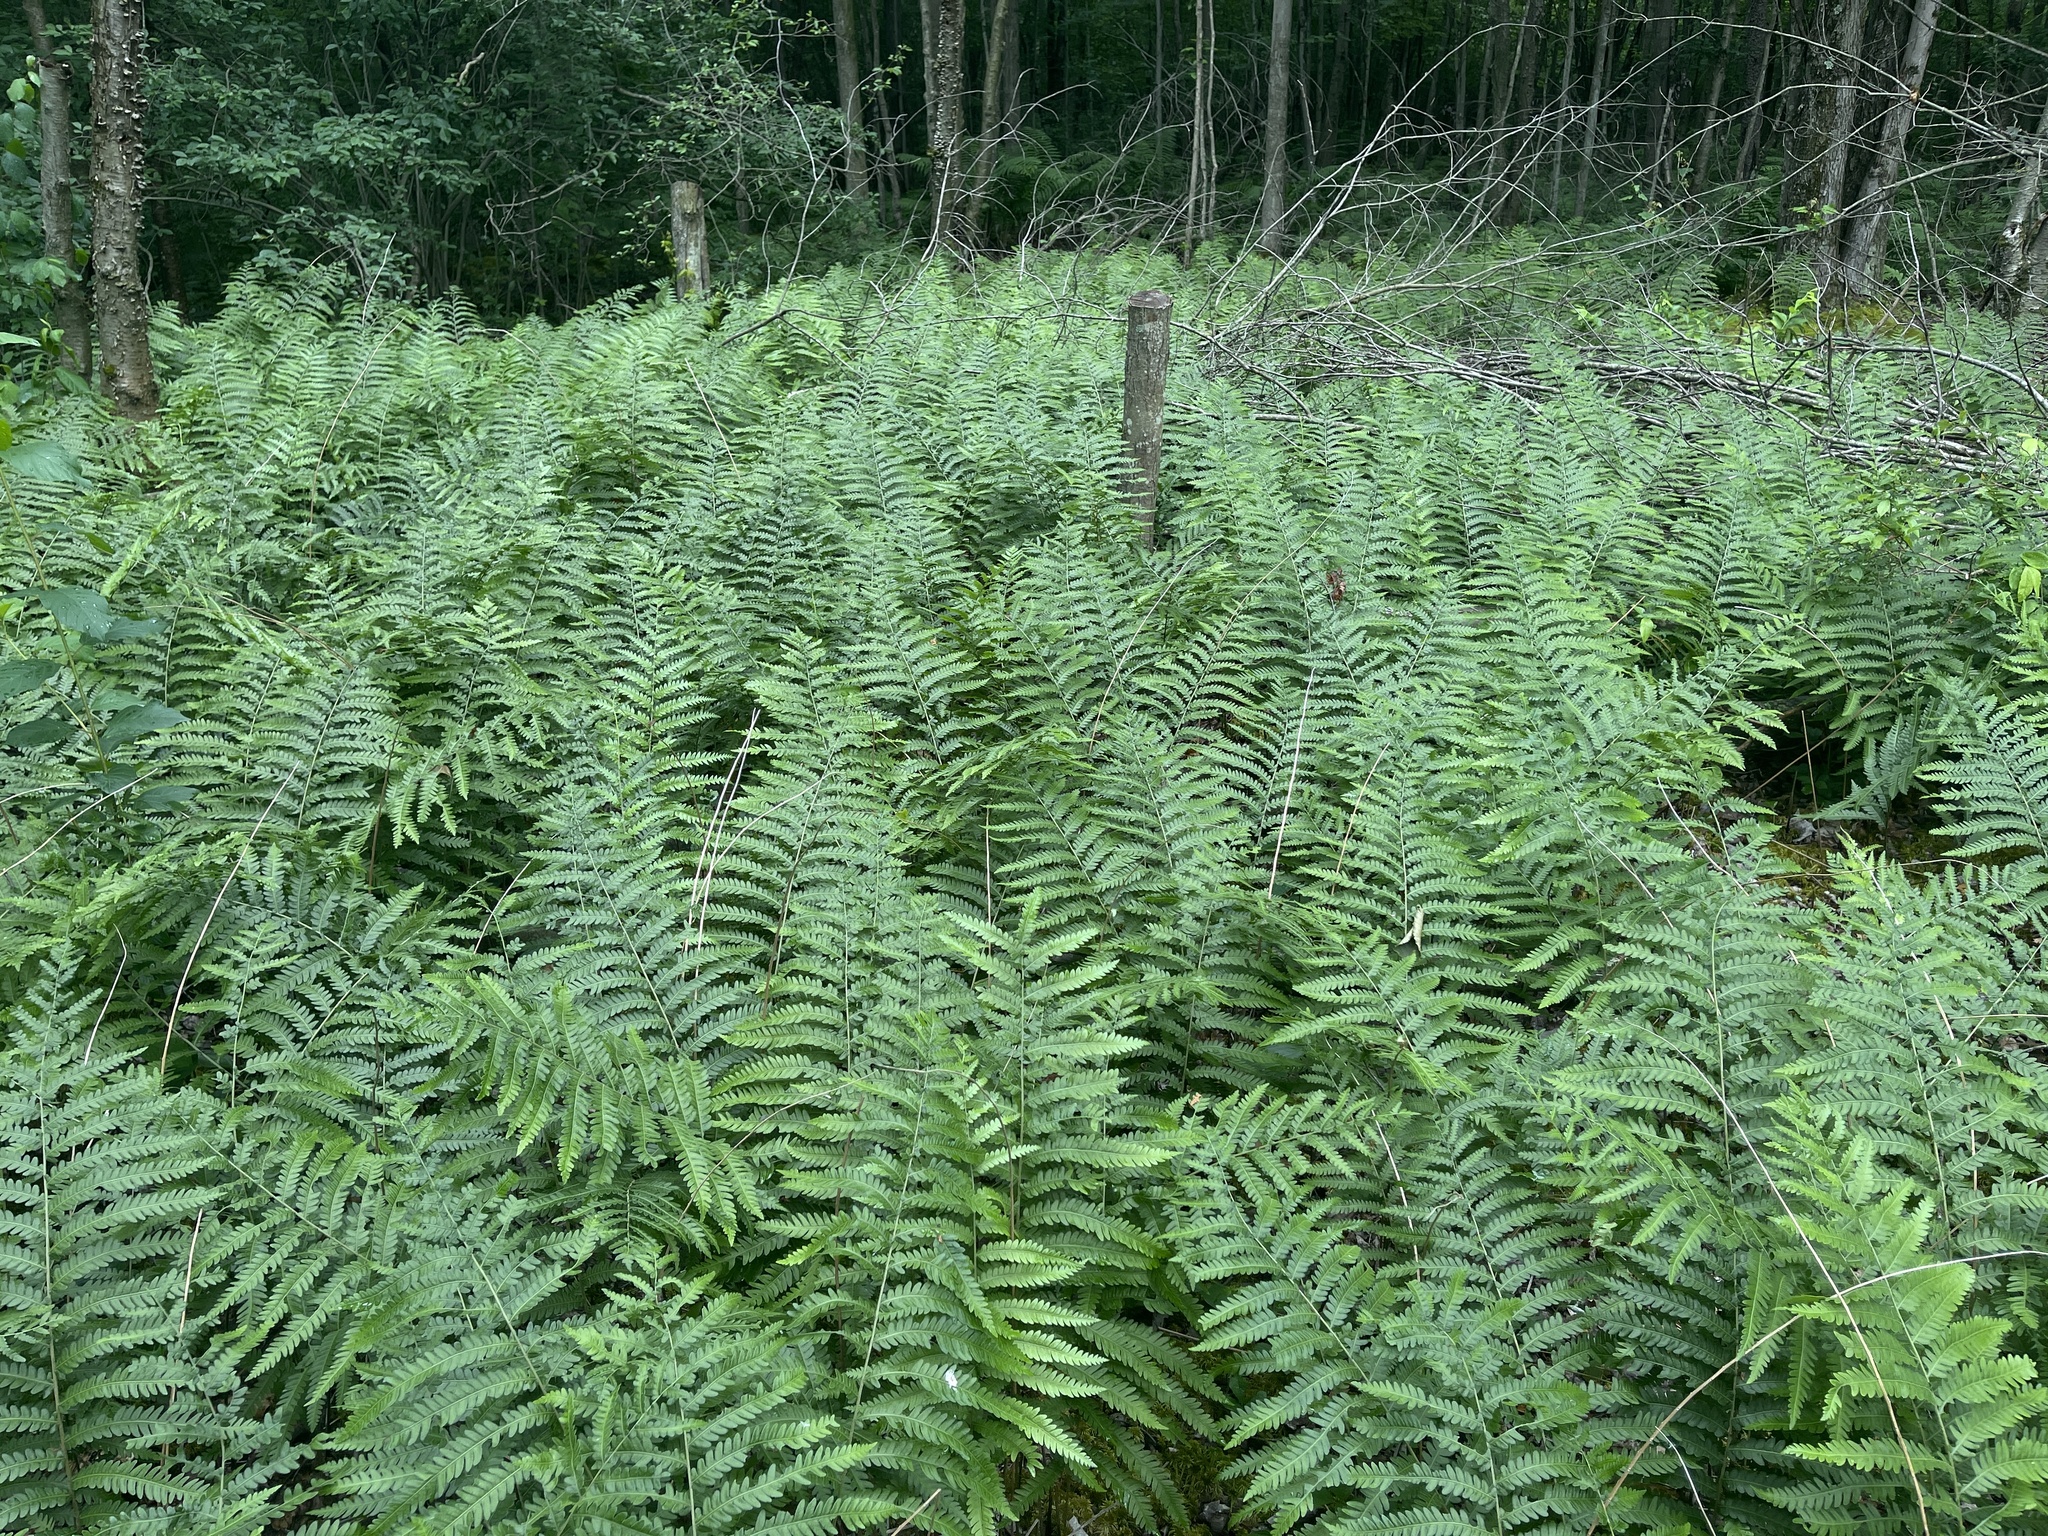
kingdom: Plantae
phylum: Tracheophyta
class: Polypodiopsida
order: Polypodiales
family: Blechnaceae
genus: Anchistea
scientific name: Anchistea virginica
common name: Virginia chain fern
